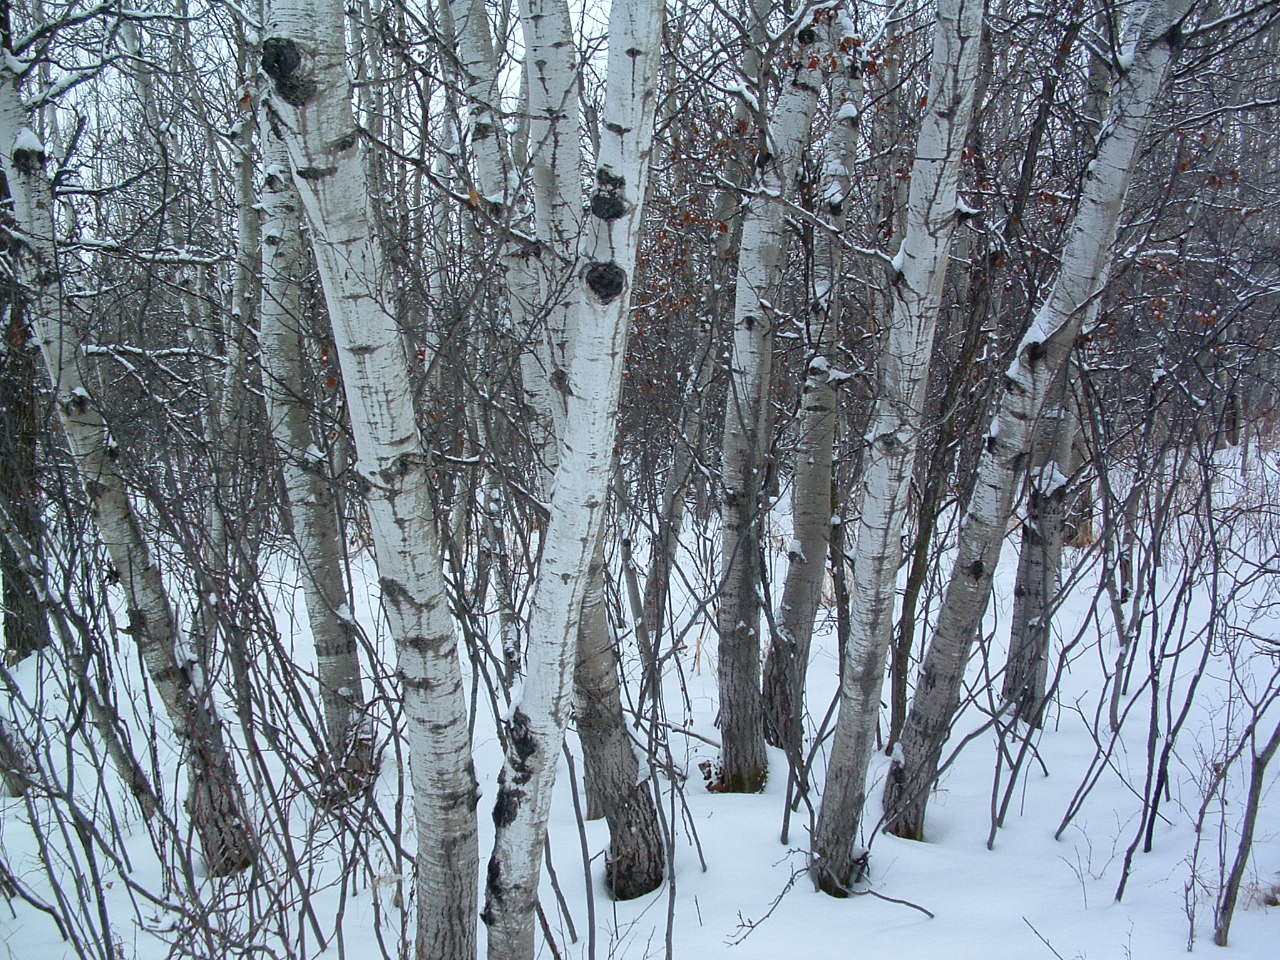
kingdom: Plantae
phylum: Tracheophyta
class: Magnoliopsida
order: Malpighiales
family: Salicaceae
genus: Populus
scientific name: Populus tremuloides
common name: Quaking aspen
